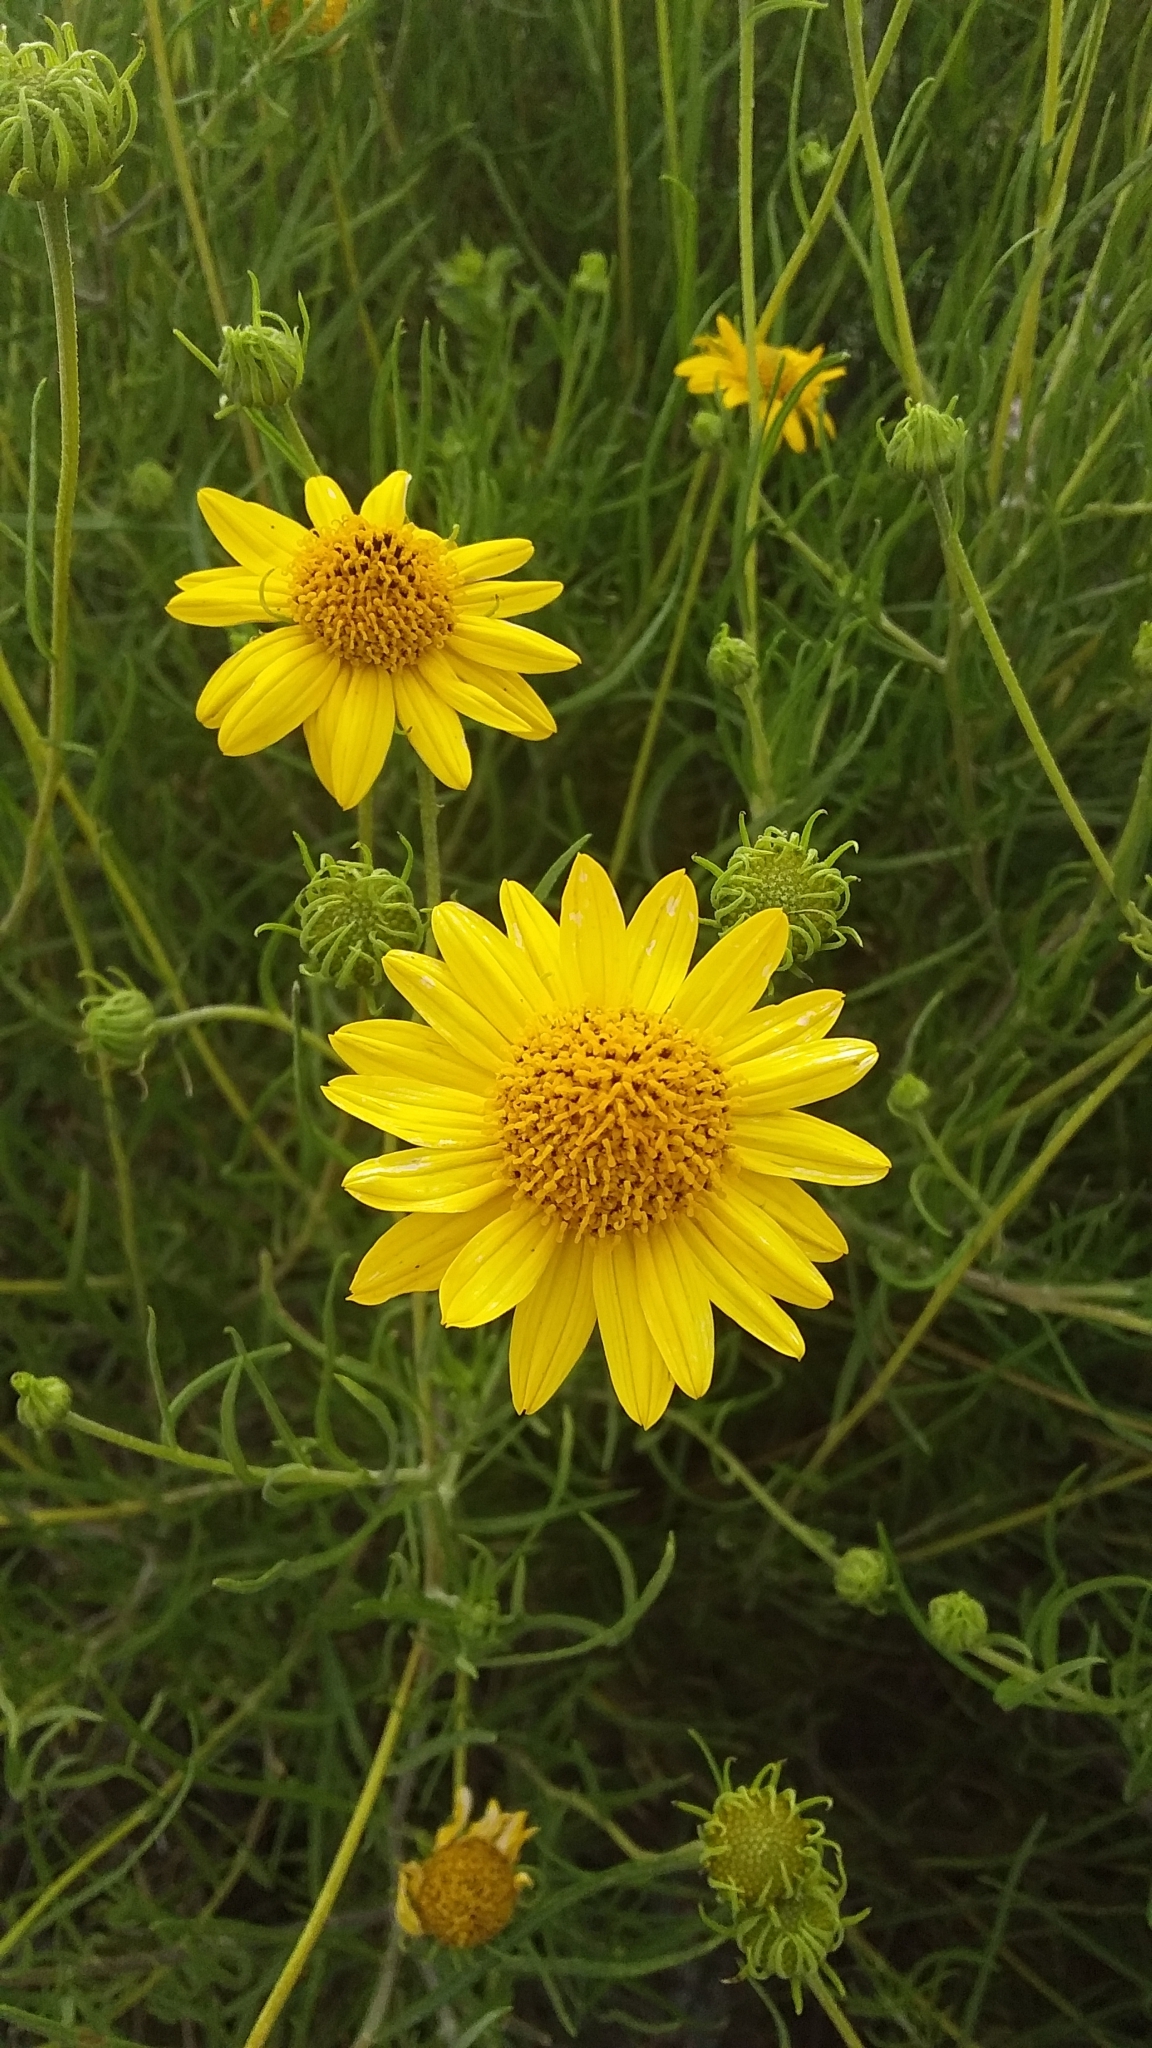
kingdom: Plantae
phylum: Tracheophyta
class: Magnoliopsida
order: Asterales
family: Asteraceae
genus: Sidneya
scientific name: Sidneya tenuifolia
